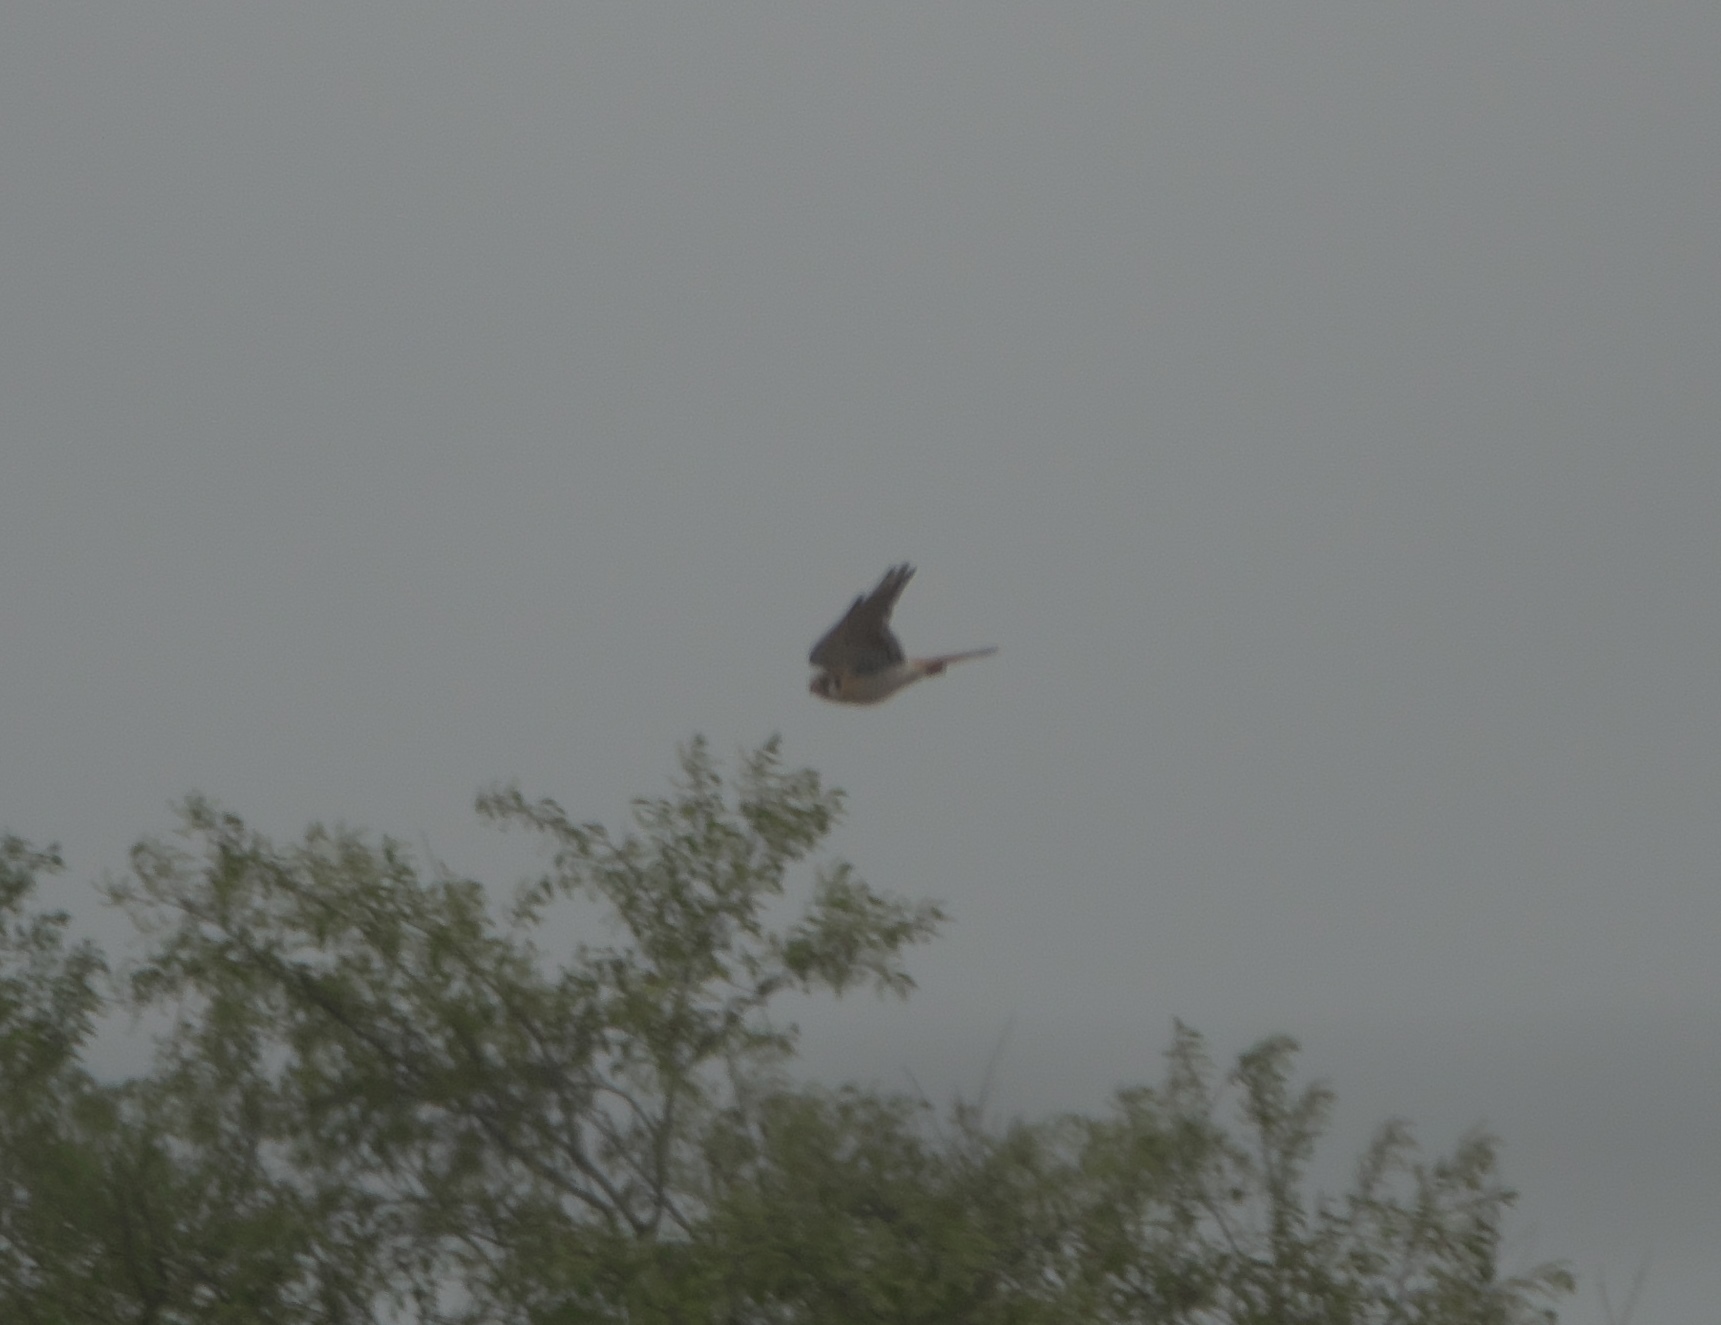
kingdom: Animalia
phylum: Chordata
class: Aves
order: Falconiformes
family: Falconidae
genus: Falco
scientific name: Falco sparverius
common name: American kestrel
